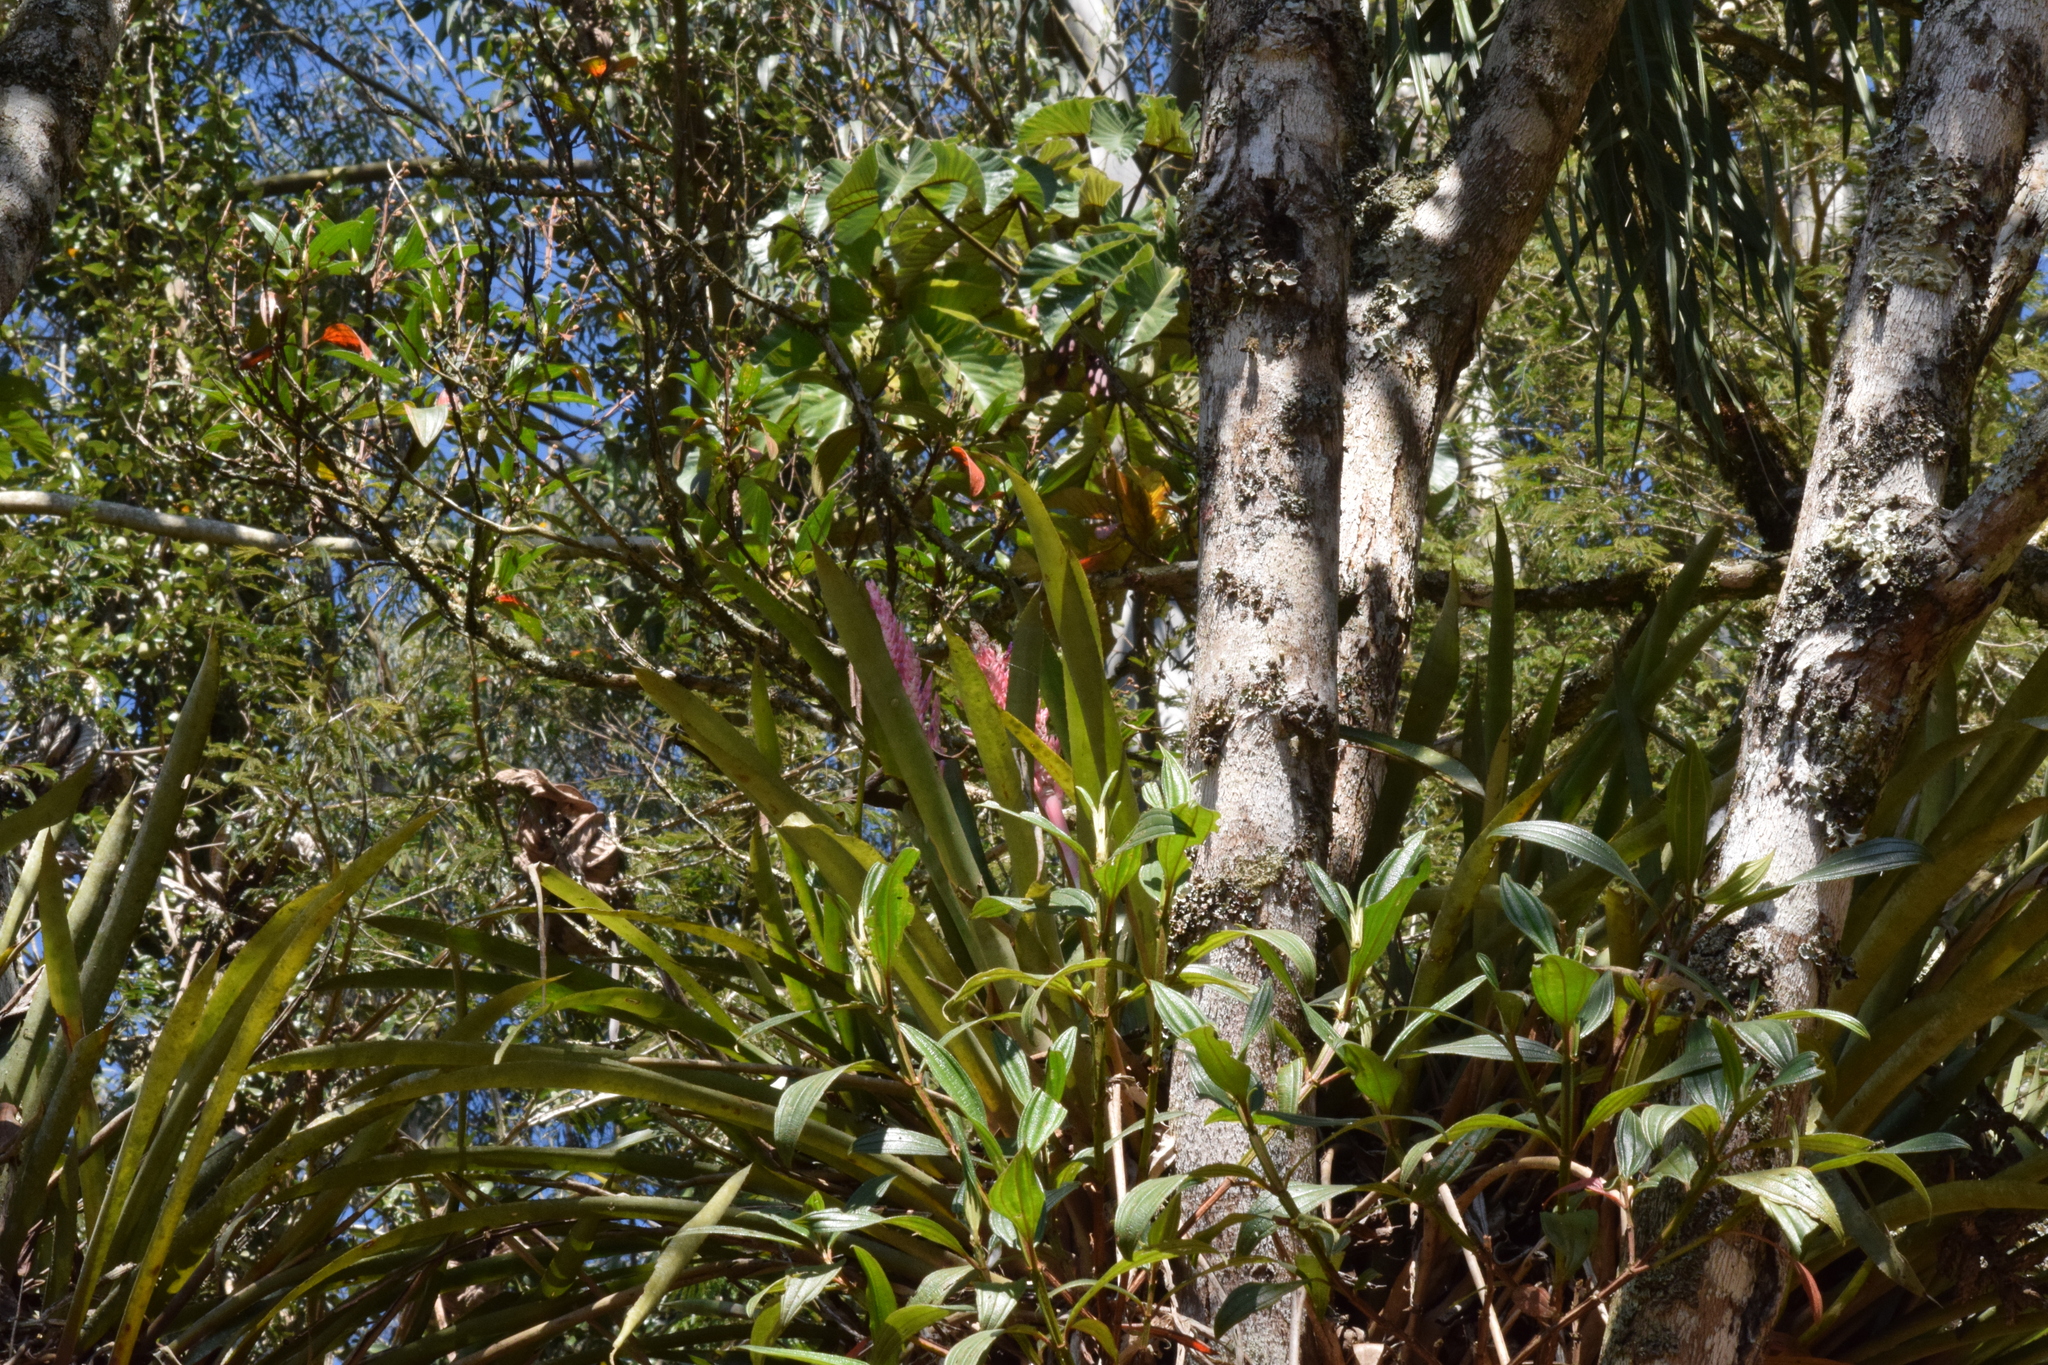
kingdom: Plantae
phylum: Tracheophyta
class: Liliopsida
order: Poales
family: Bromeliaceae
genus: Aechmea
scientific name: Aechmea distichantha
